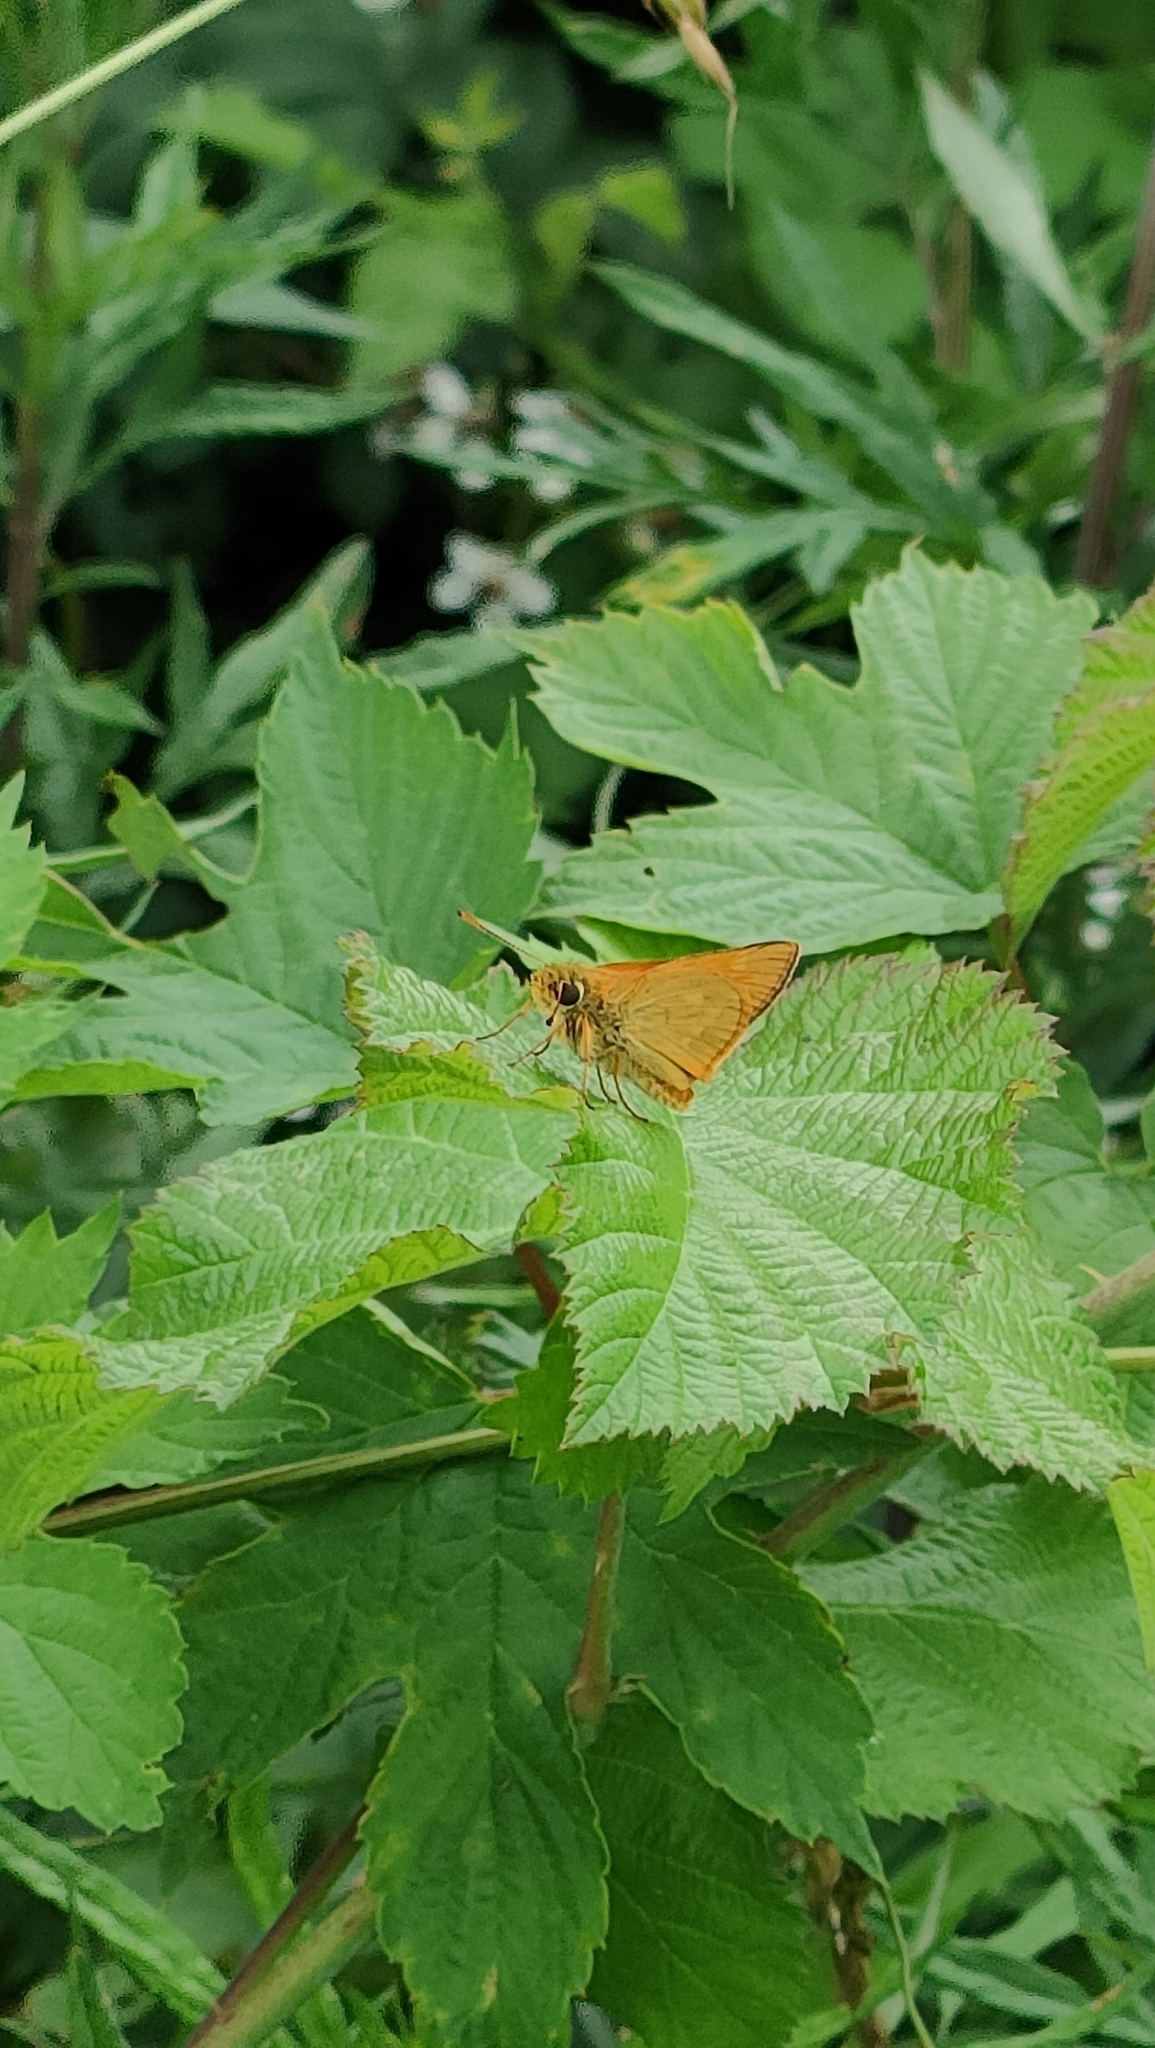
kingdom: Animalia
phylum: Arthropoda
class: Insecta
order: Lepidoptera
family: Hesperiidae
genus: Ochlodes
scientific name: Ochlodes venata
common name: Large skipper
